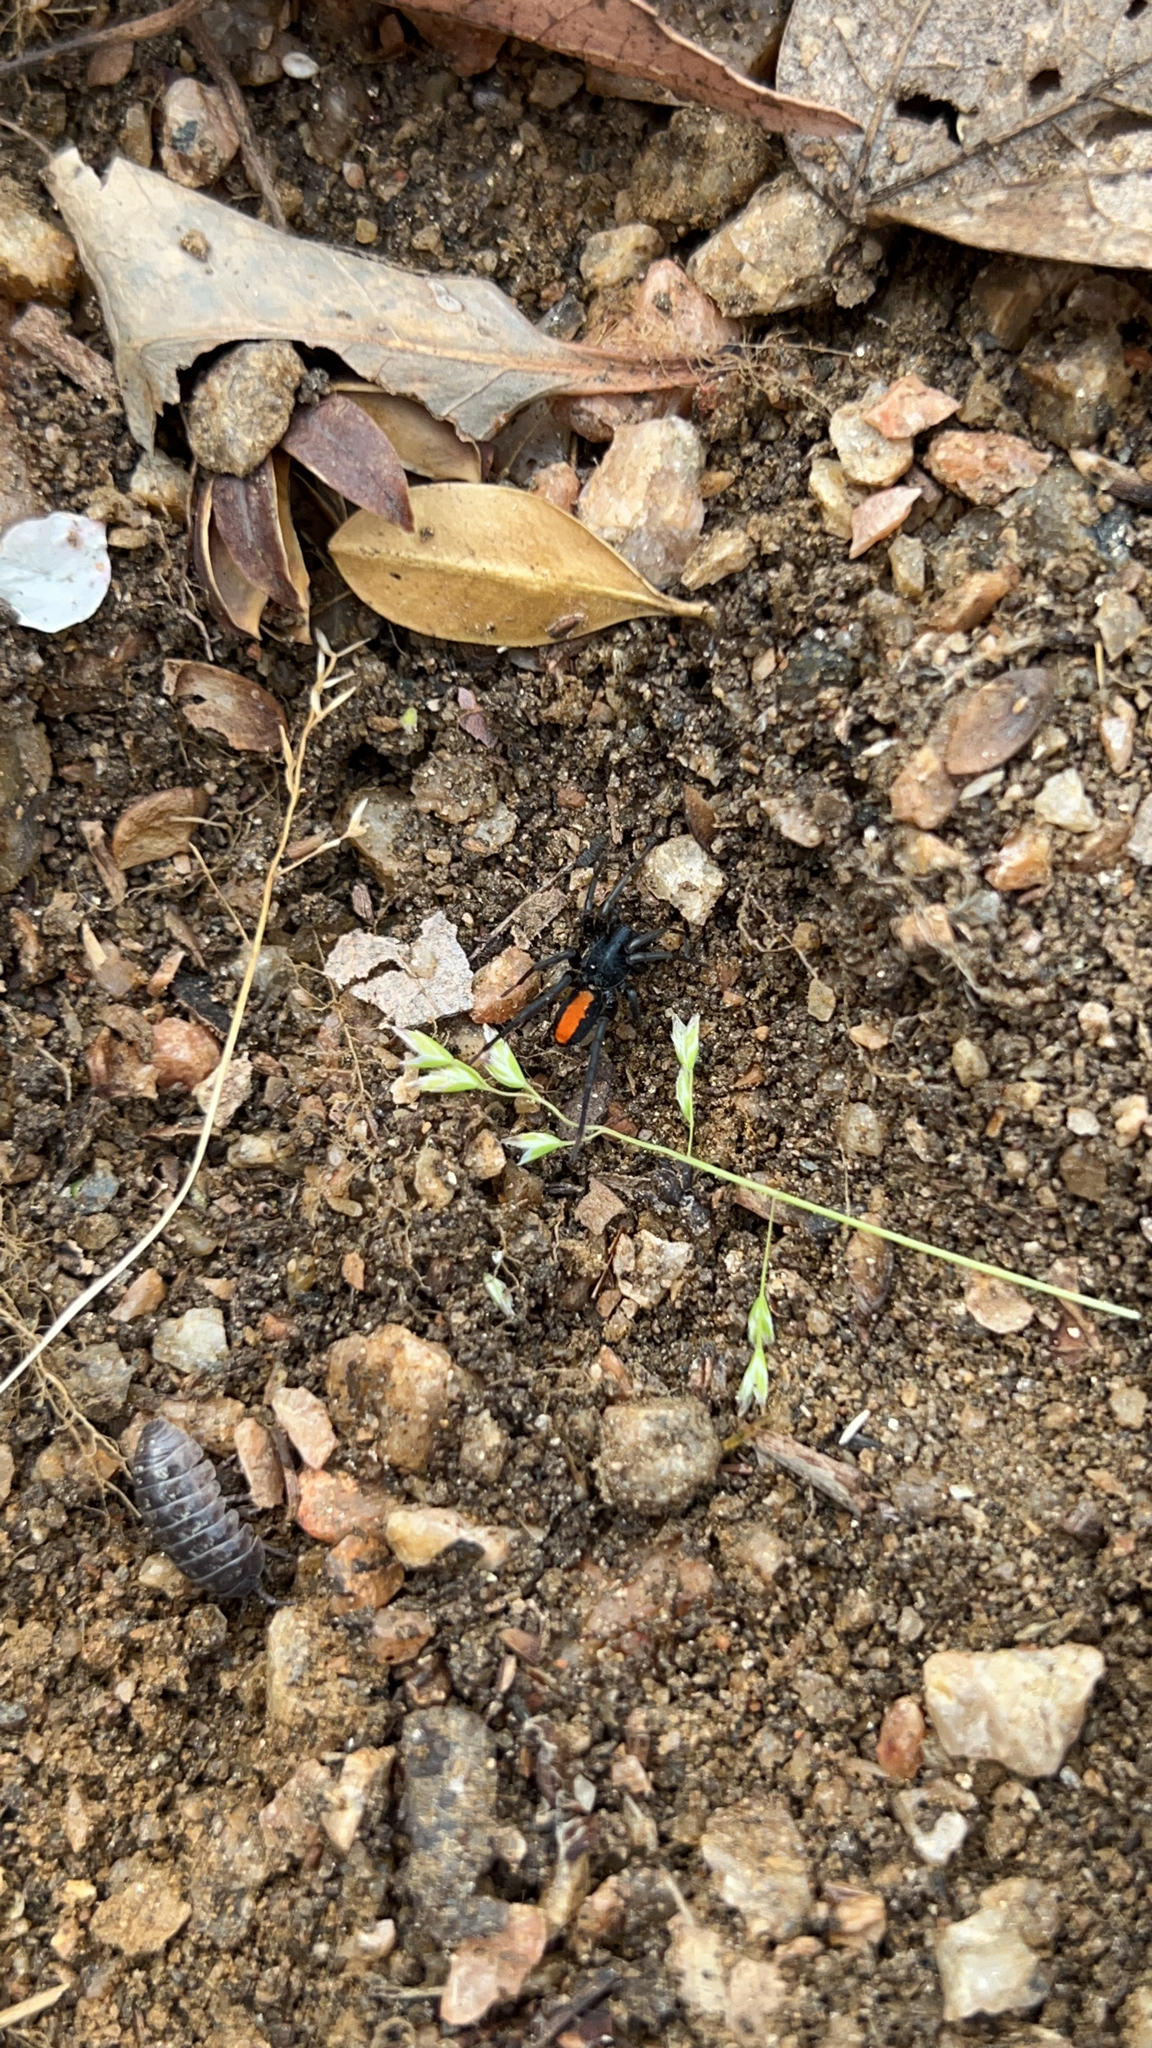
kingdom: Animalia
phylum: Arthropoda
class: Arachnida
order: Araneae
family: Corinnidae
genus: Castianeira
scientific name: Castianeira descripta
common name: Red-spotted ant-mimic sac spider
